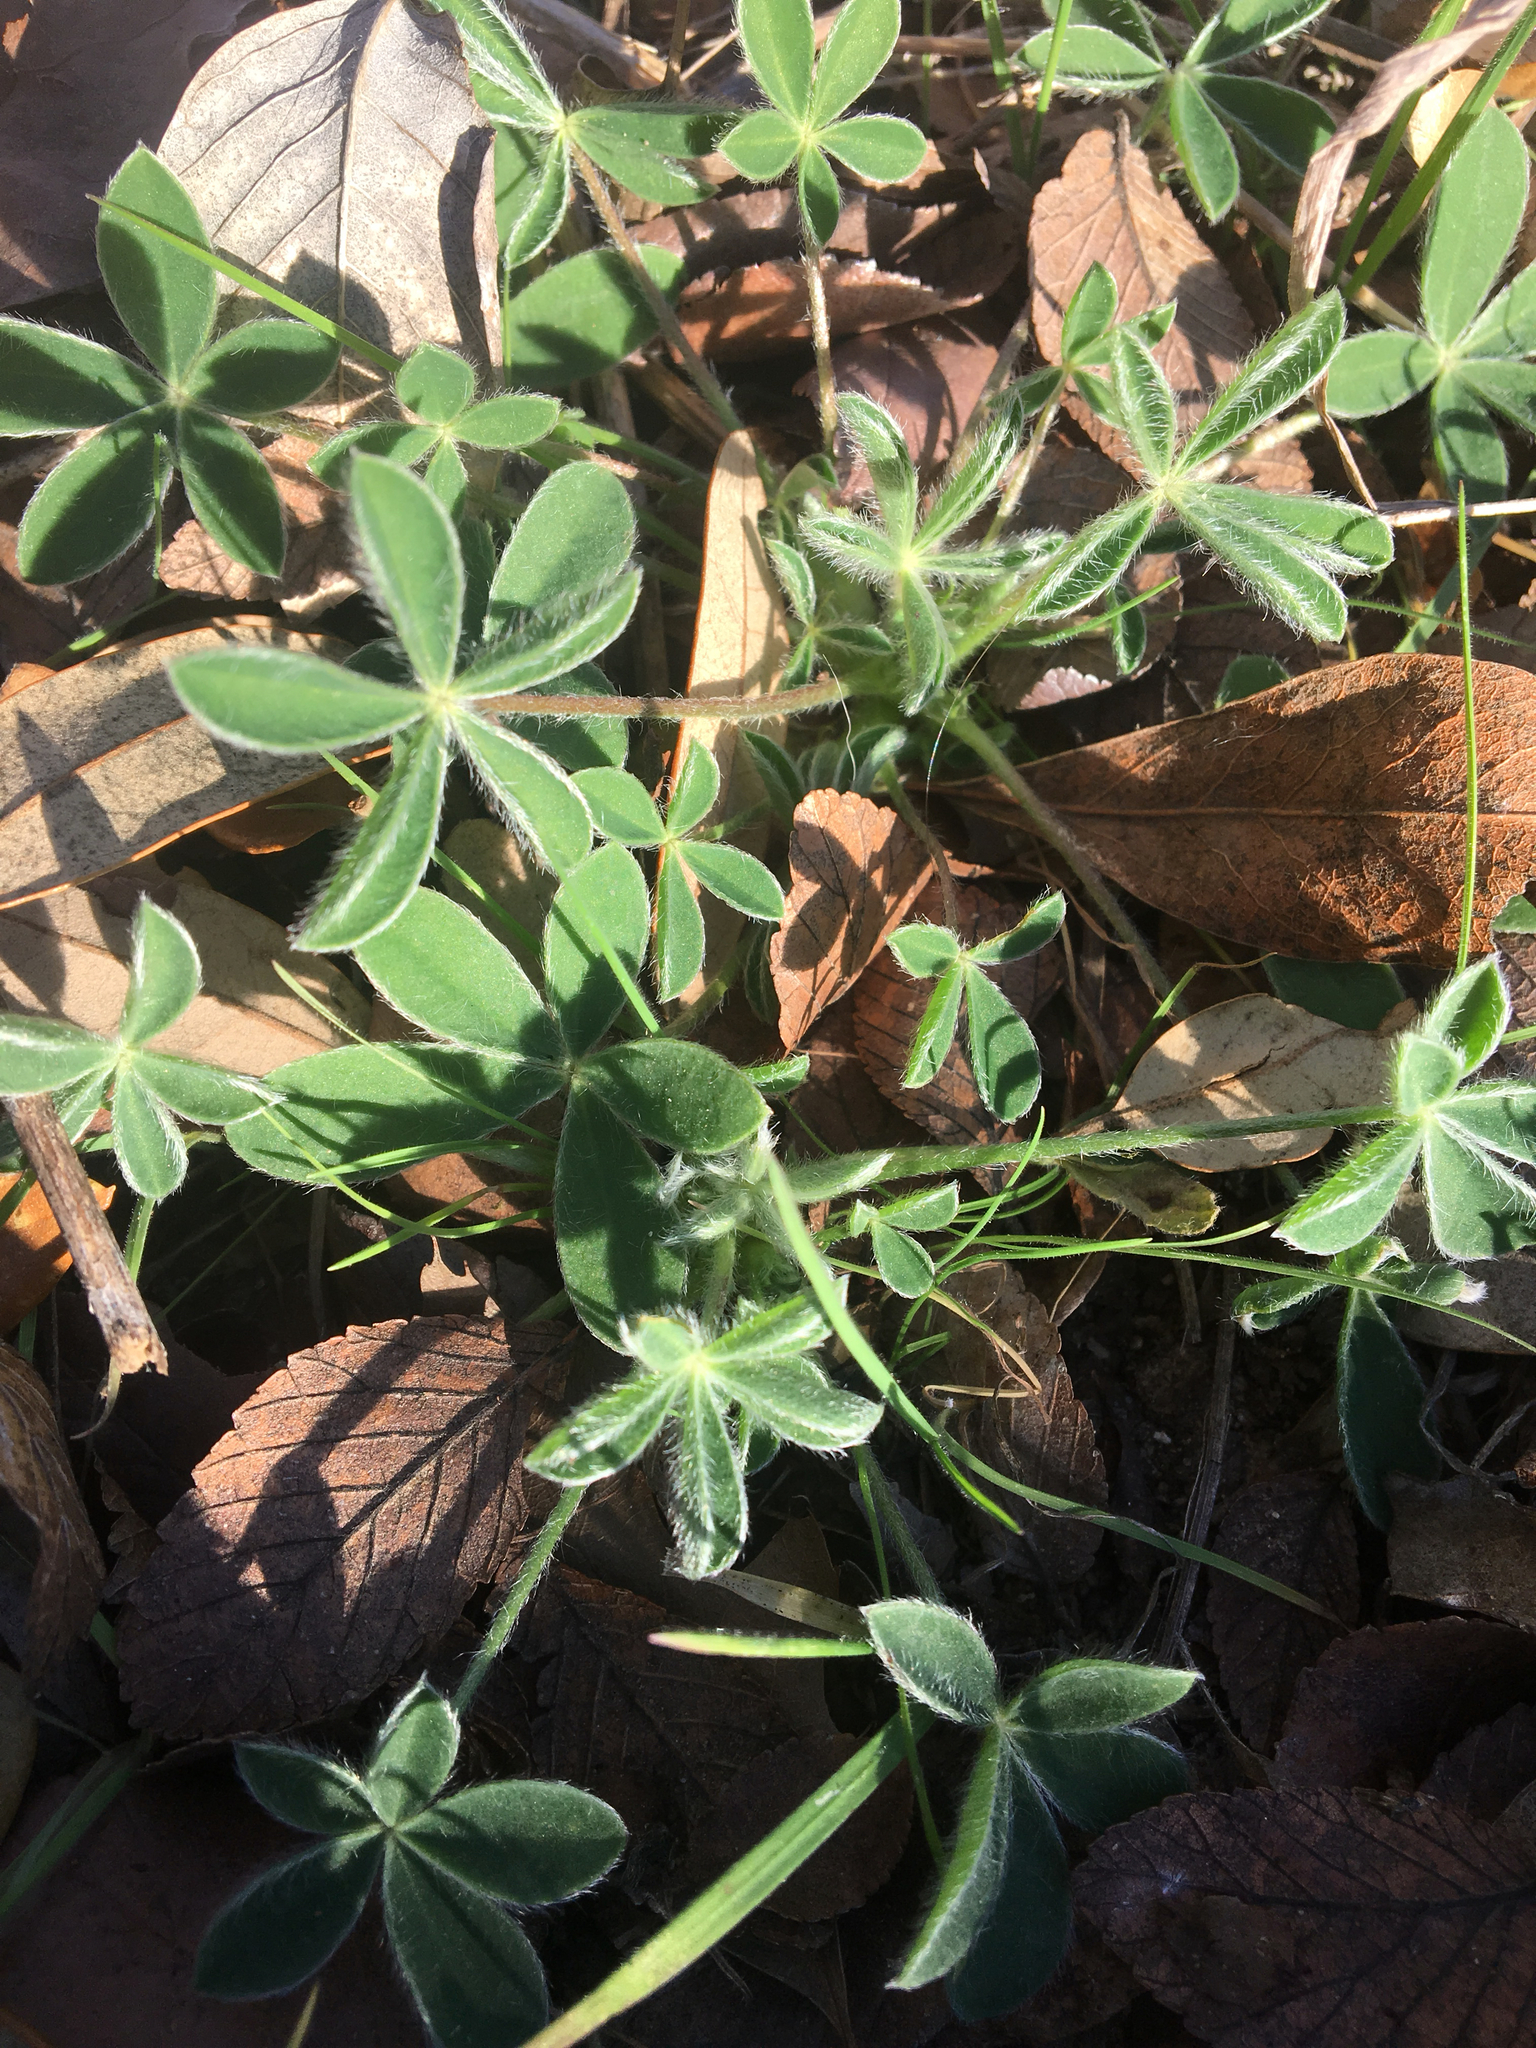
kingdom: Plantae
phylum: Tracheophyta
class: Magnoliopsida
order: Fabales
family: Fabaceae
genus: Lupinus
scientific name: Lupinus texensis
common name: Texas bluebonnet
